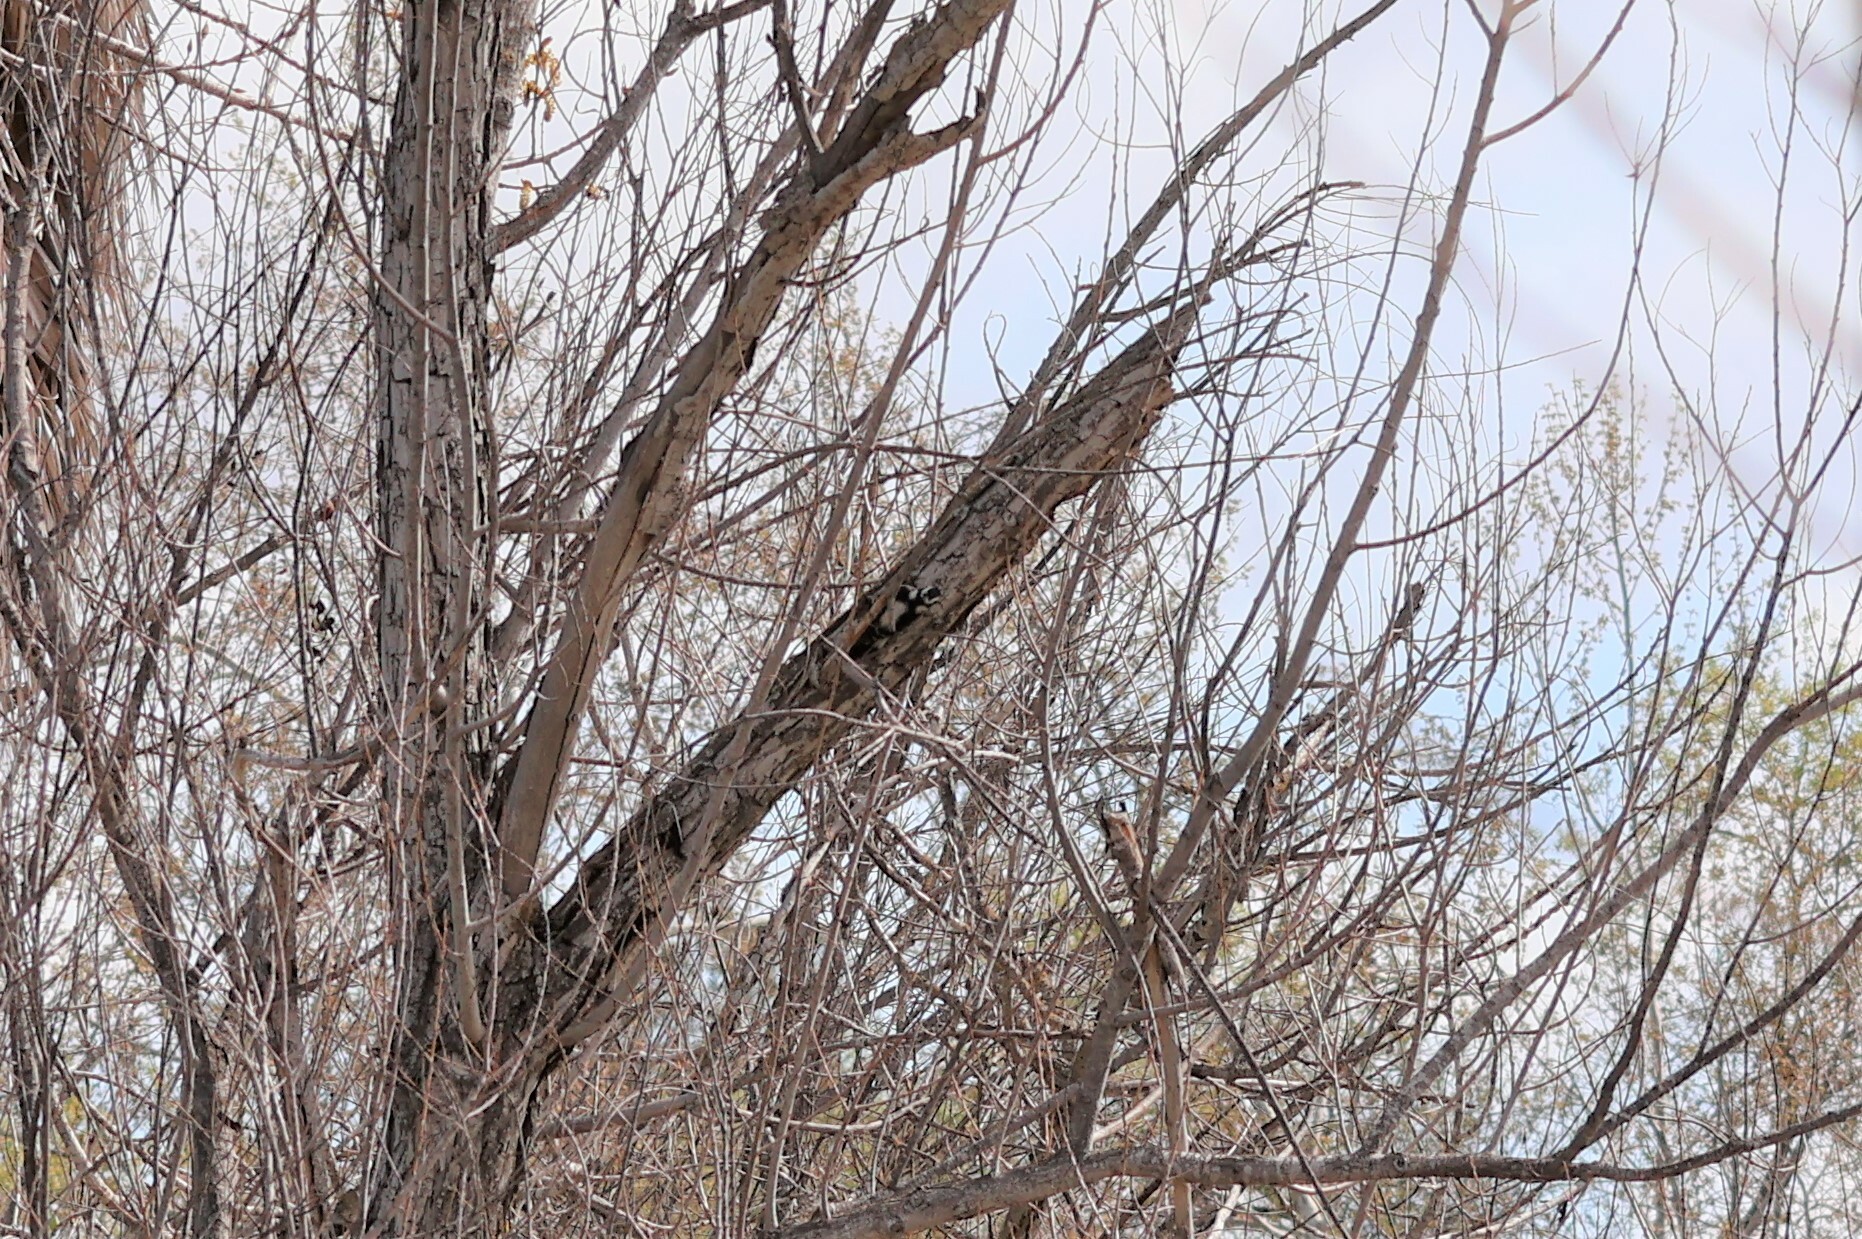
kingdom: Animalia
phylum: Chordata
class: Aves
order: Piciformes
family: Picidae
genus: Dryobates
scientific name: Dryobates pubescens
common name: Downy woodpecker
